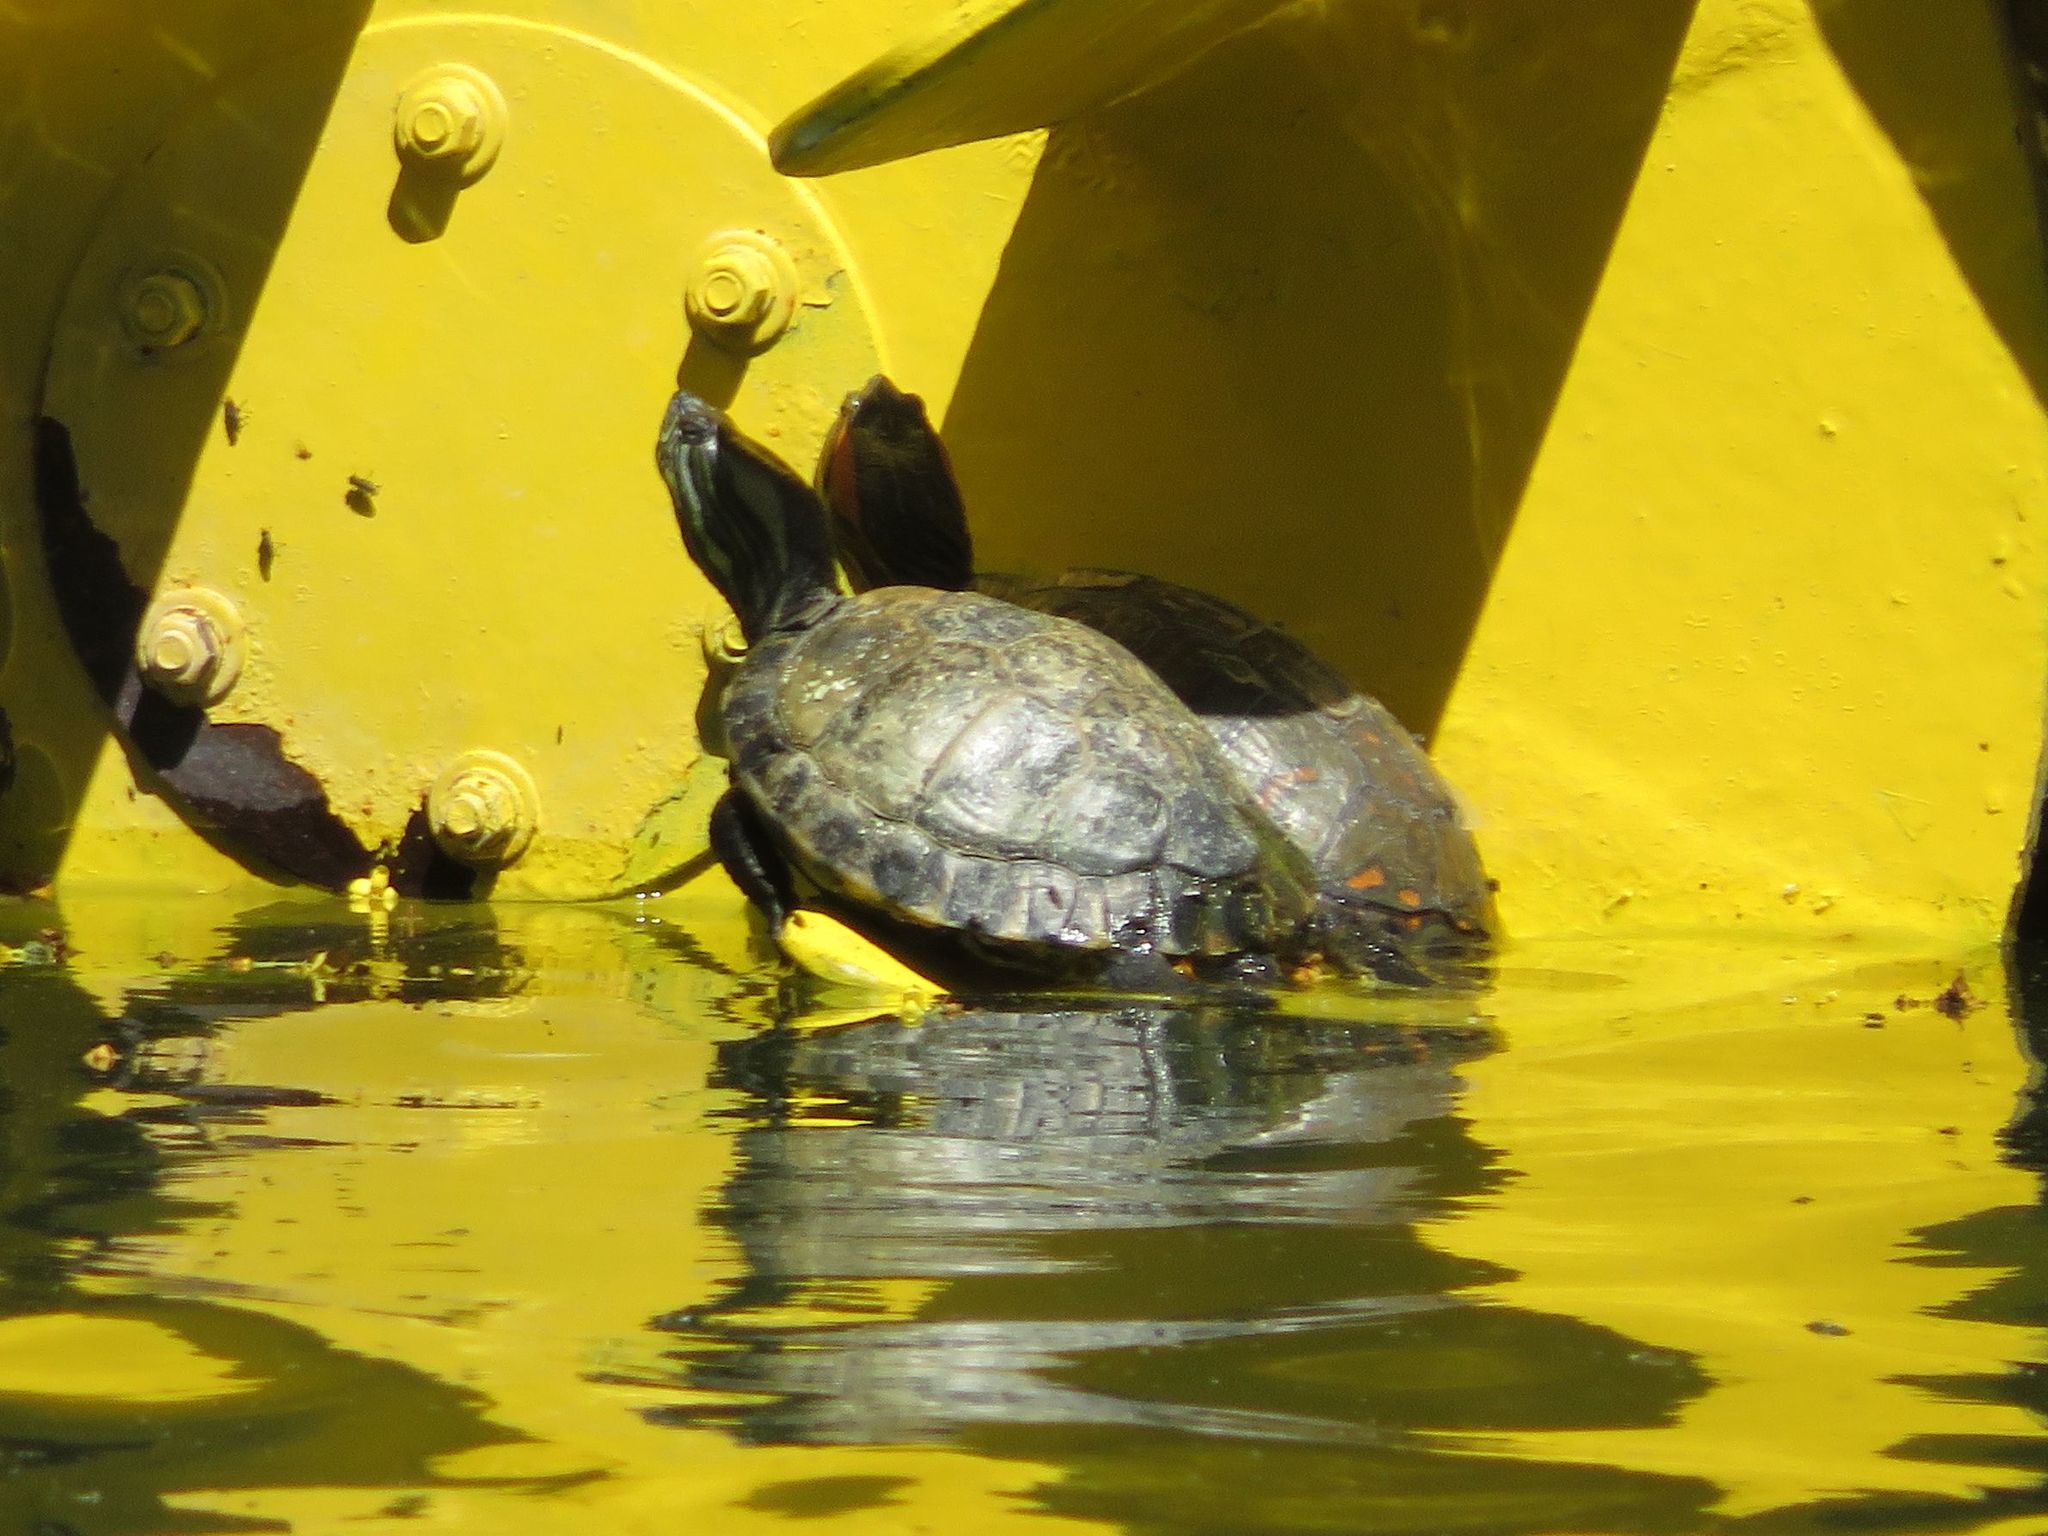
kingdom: Animalia
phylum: Chordata
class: Testudines
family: Emydidae
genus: Trachemys
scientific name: Trachemys dorbigni
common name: Black-bellied slider
